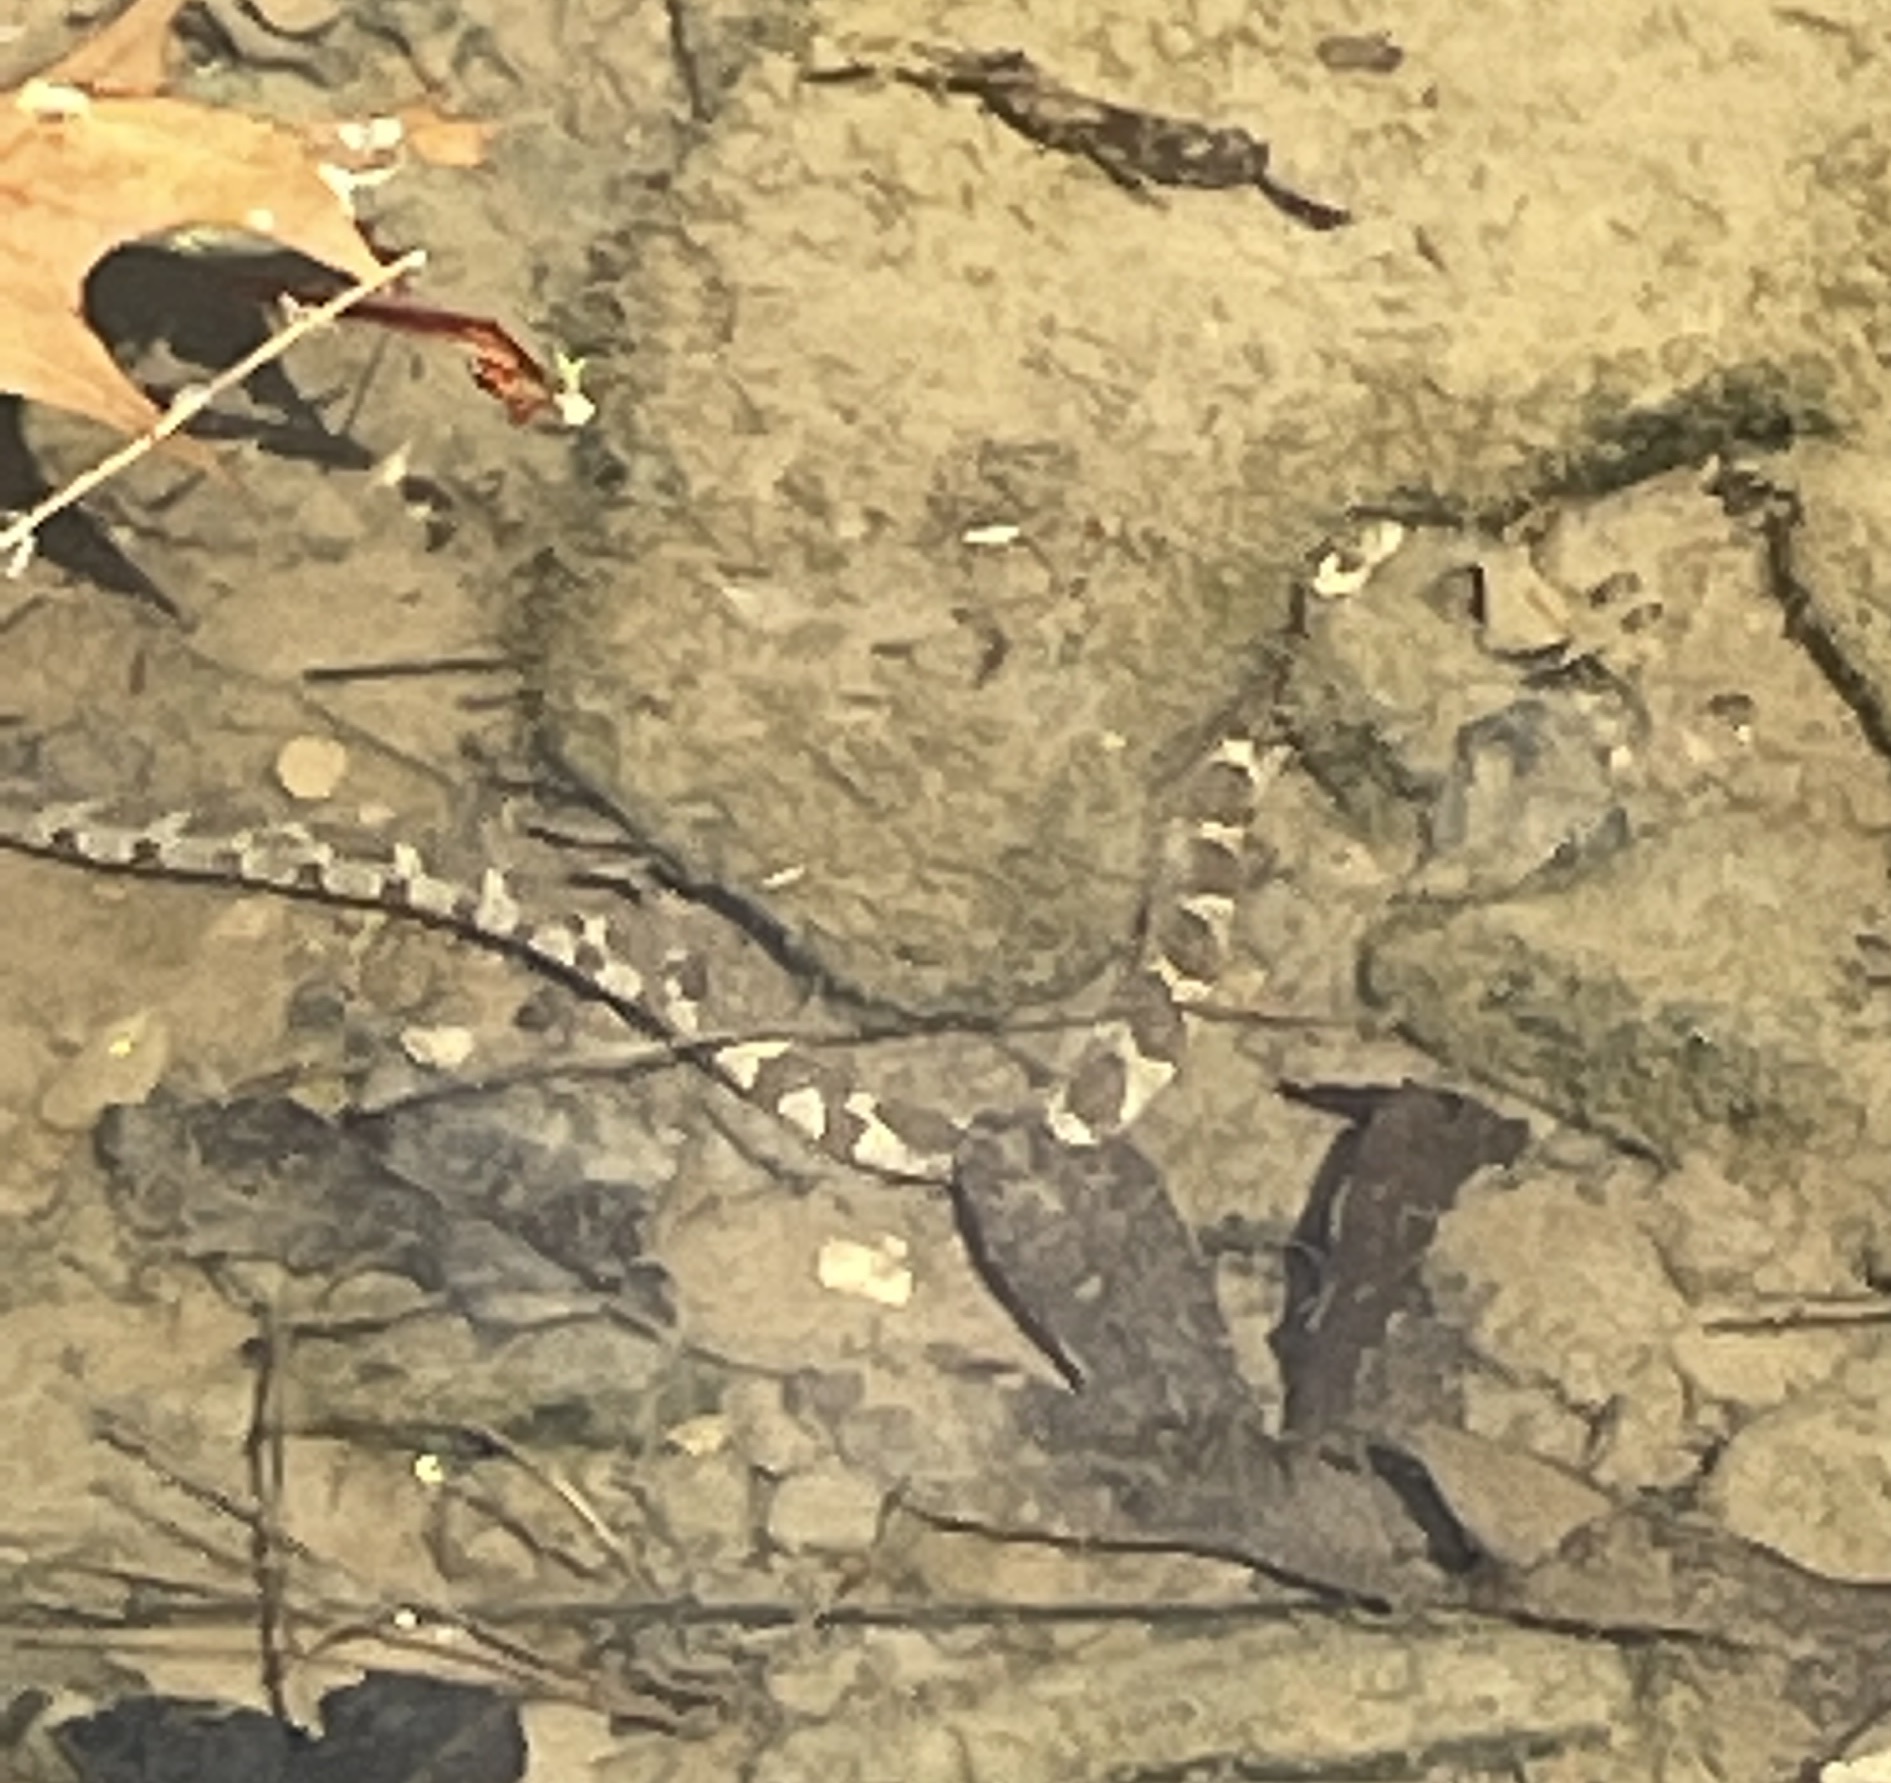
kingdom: Animalia
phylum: Chordata
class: Squamata
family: Colubridae
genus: Nerodia
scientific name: Nerodia sipedon
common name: Northern water snake
